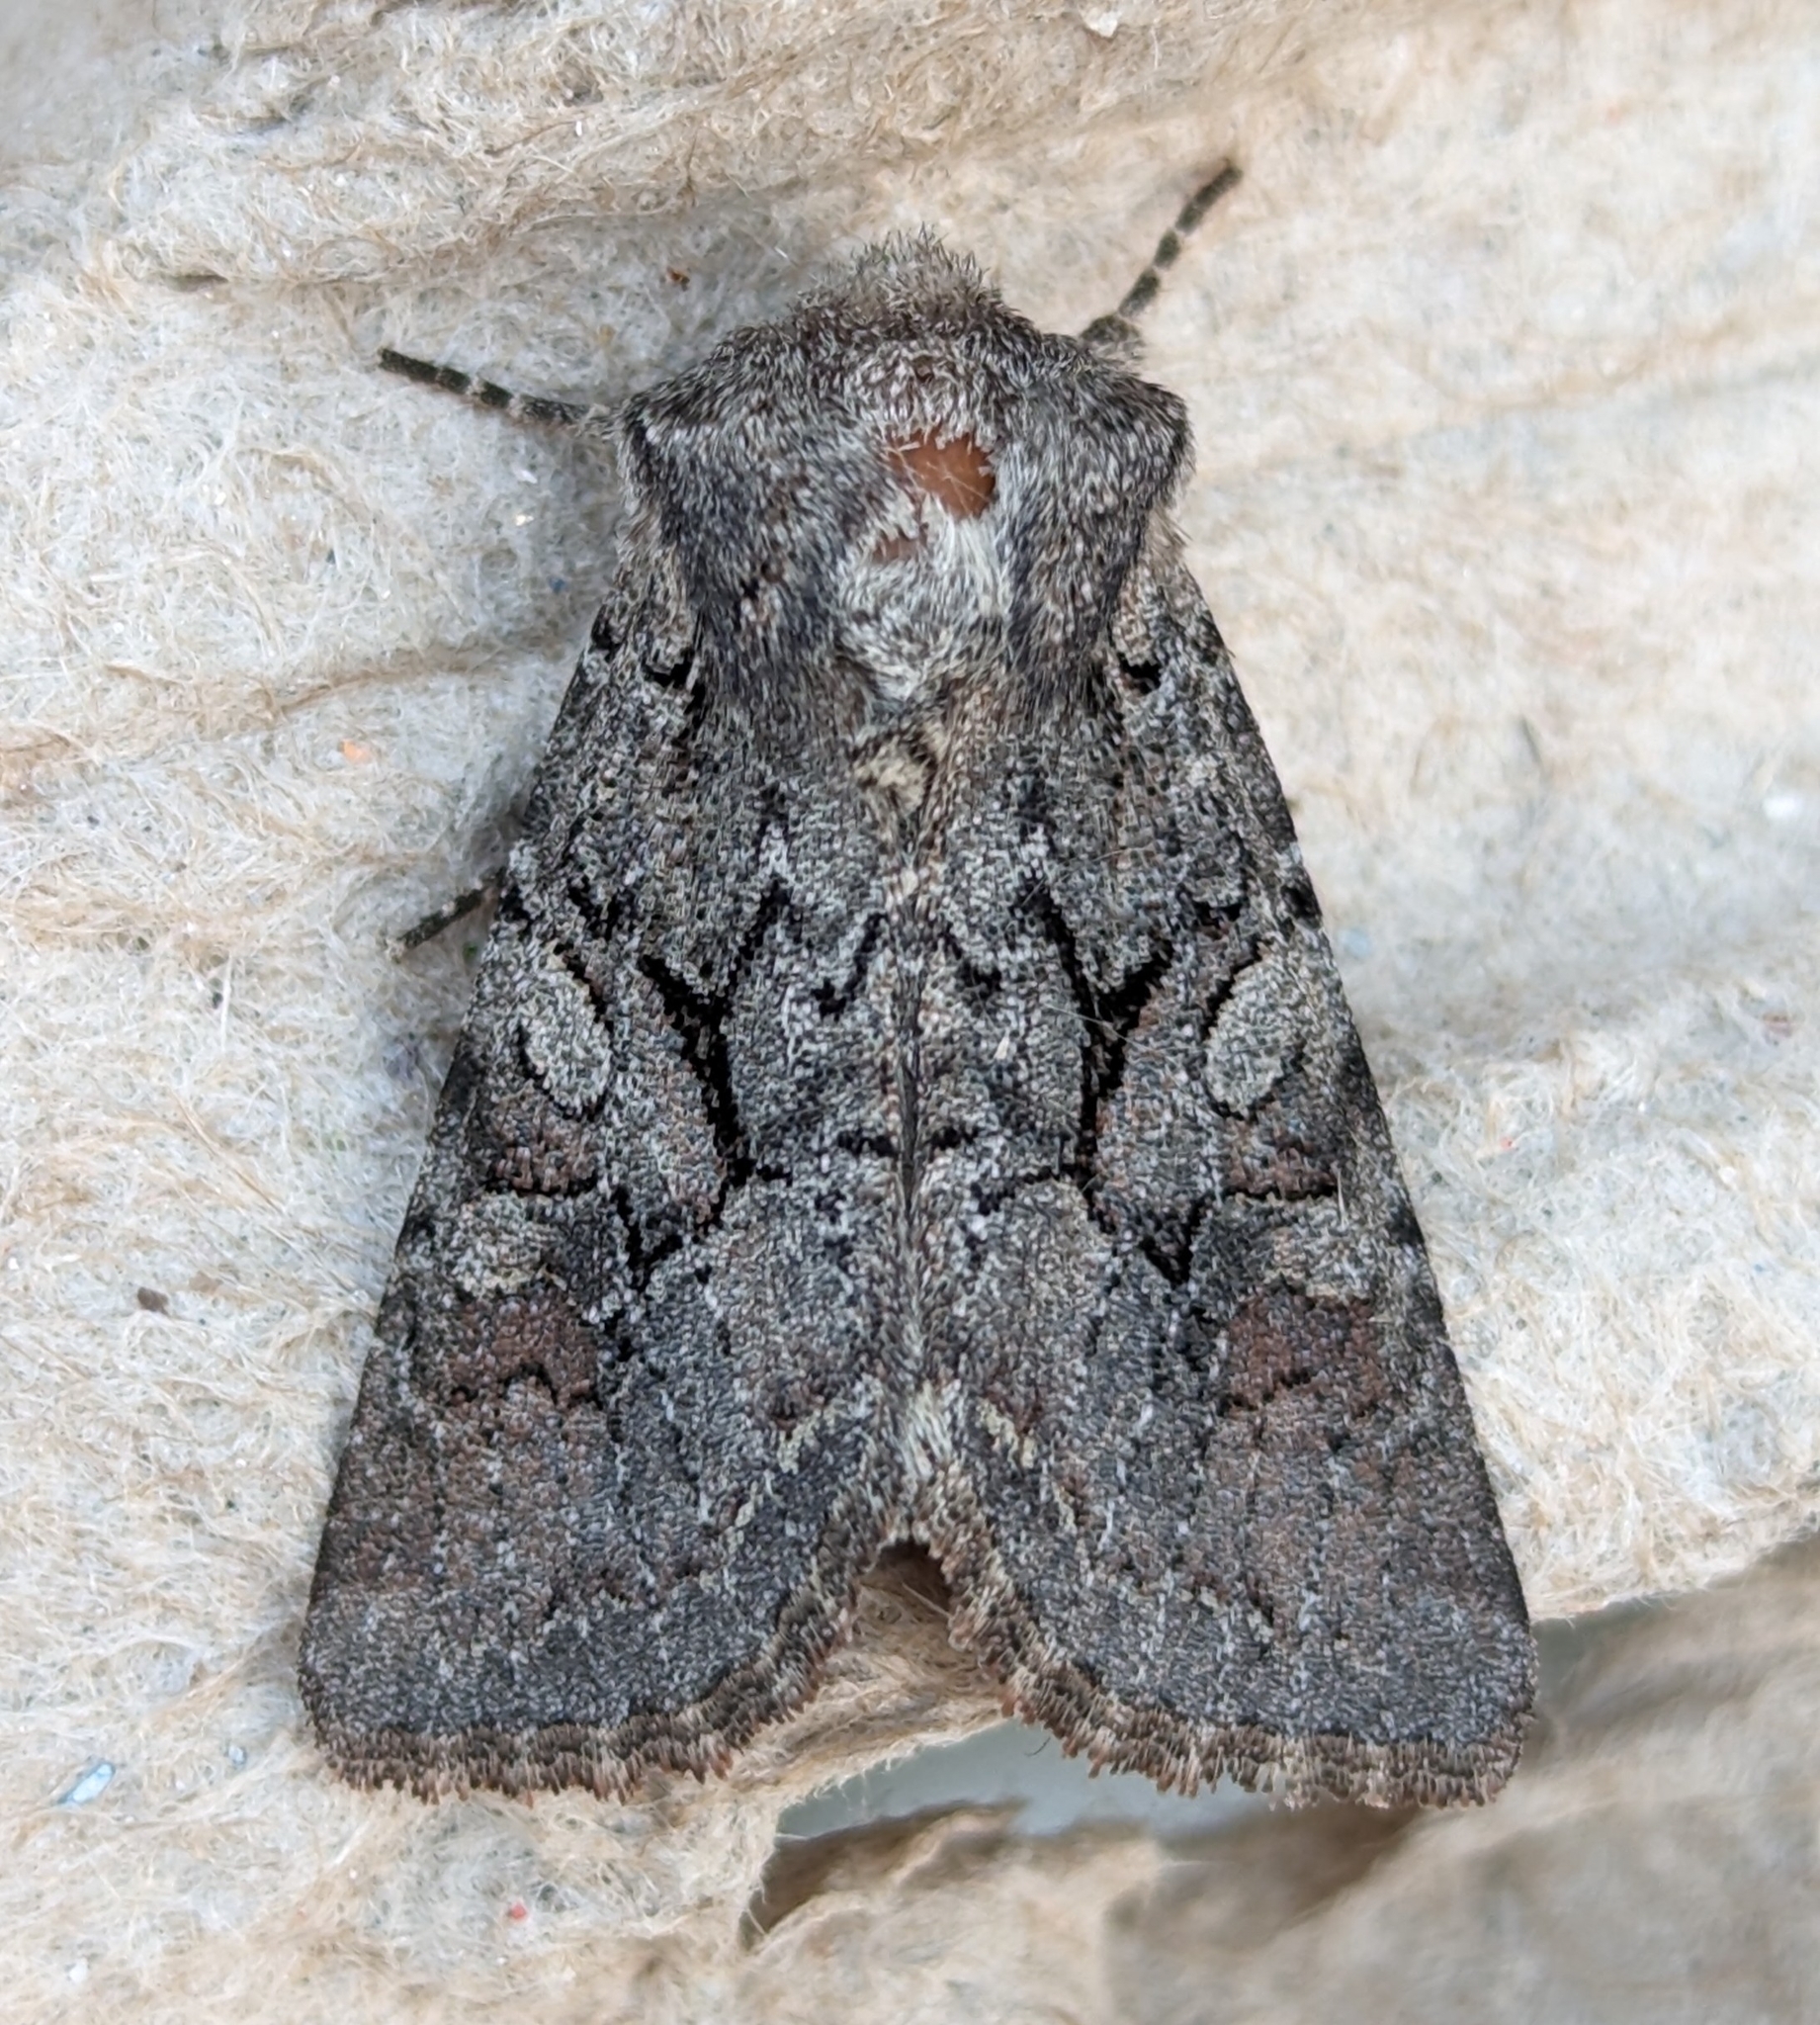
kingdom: Animalia
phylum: Arthropoda
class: Insecta
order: Lepidoptera
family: Noctuidae
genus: Orthosia
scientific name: Orthosia segregata
